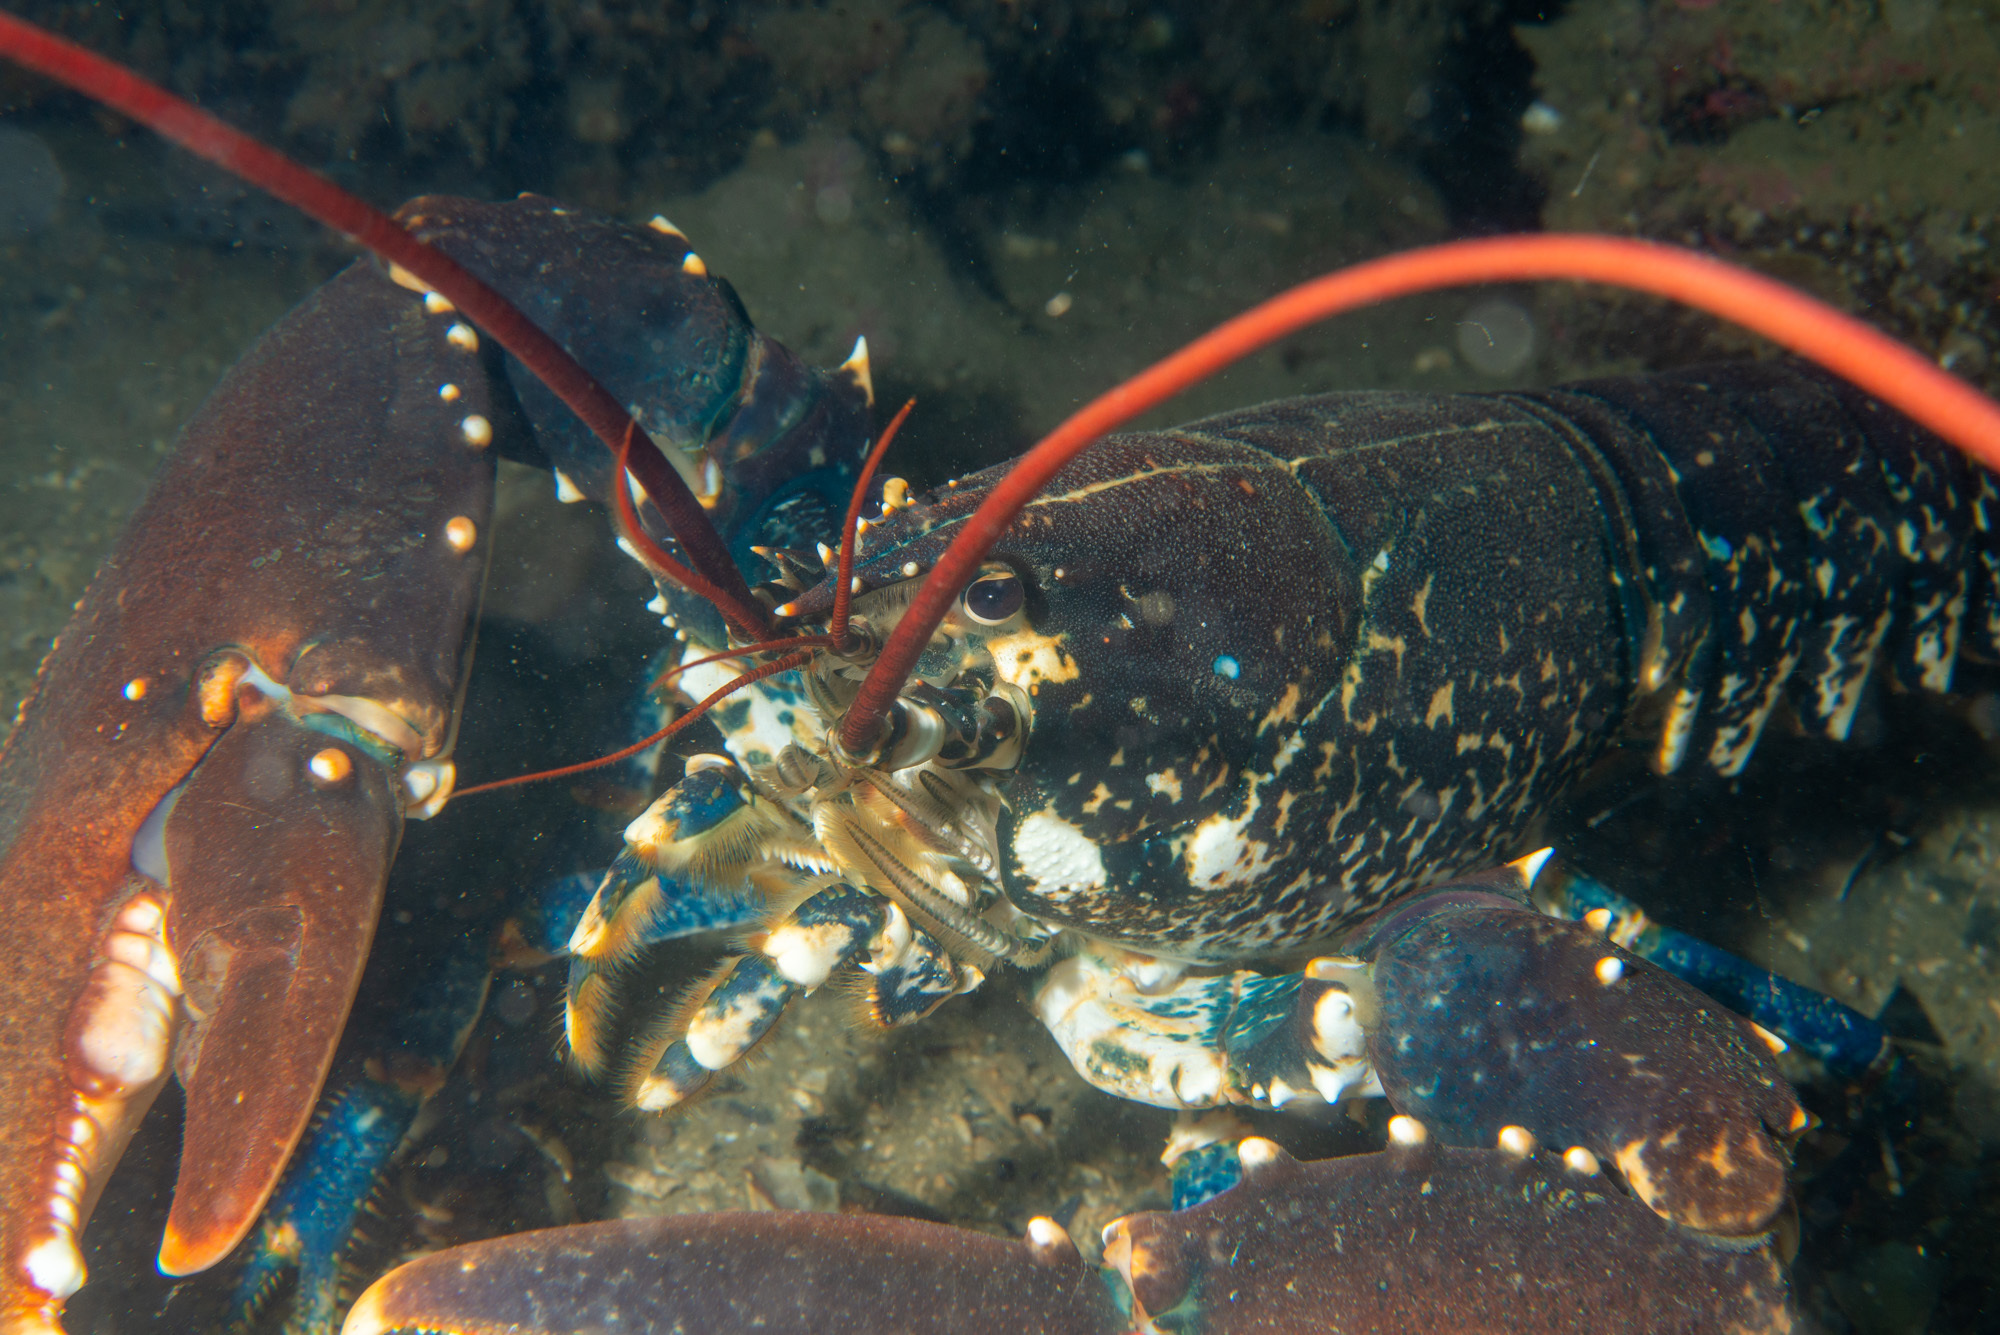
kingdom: Animalia
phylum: Arthropoda
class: Malacostraca
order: Decapoda
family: Nephropidae
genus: Homarus
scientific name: Homarus gammarus
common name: European lobster
